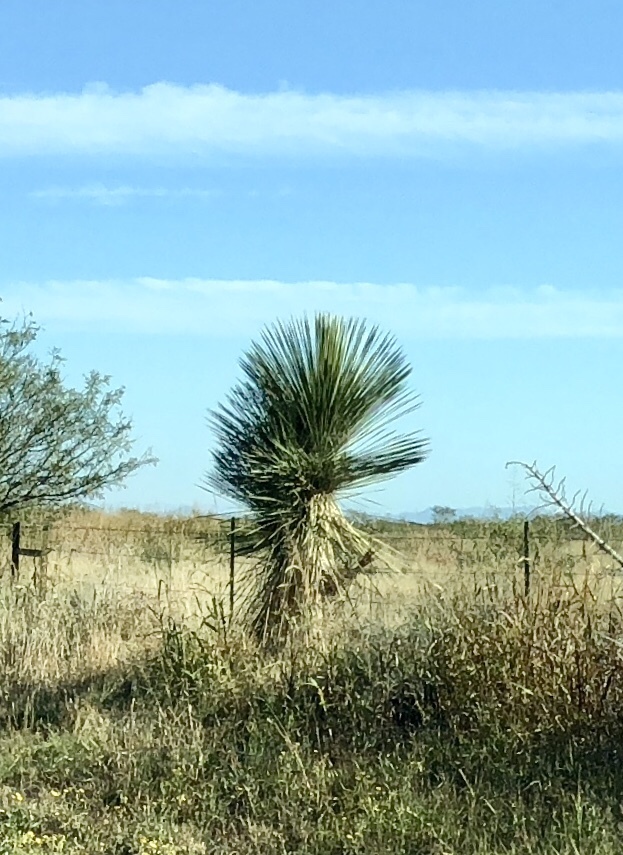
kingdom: Plantae
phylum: Tracheophyta
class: Liliopsida
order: Asparagales
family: Asparagaceae
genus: Yucca
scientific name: Yucca elata
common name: Palmella
